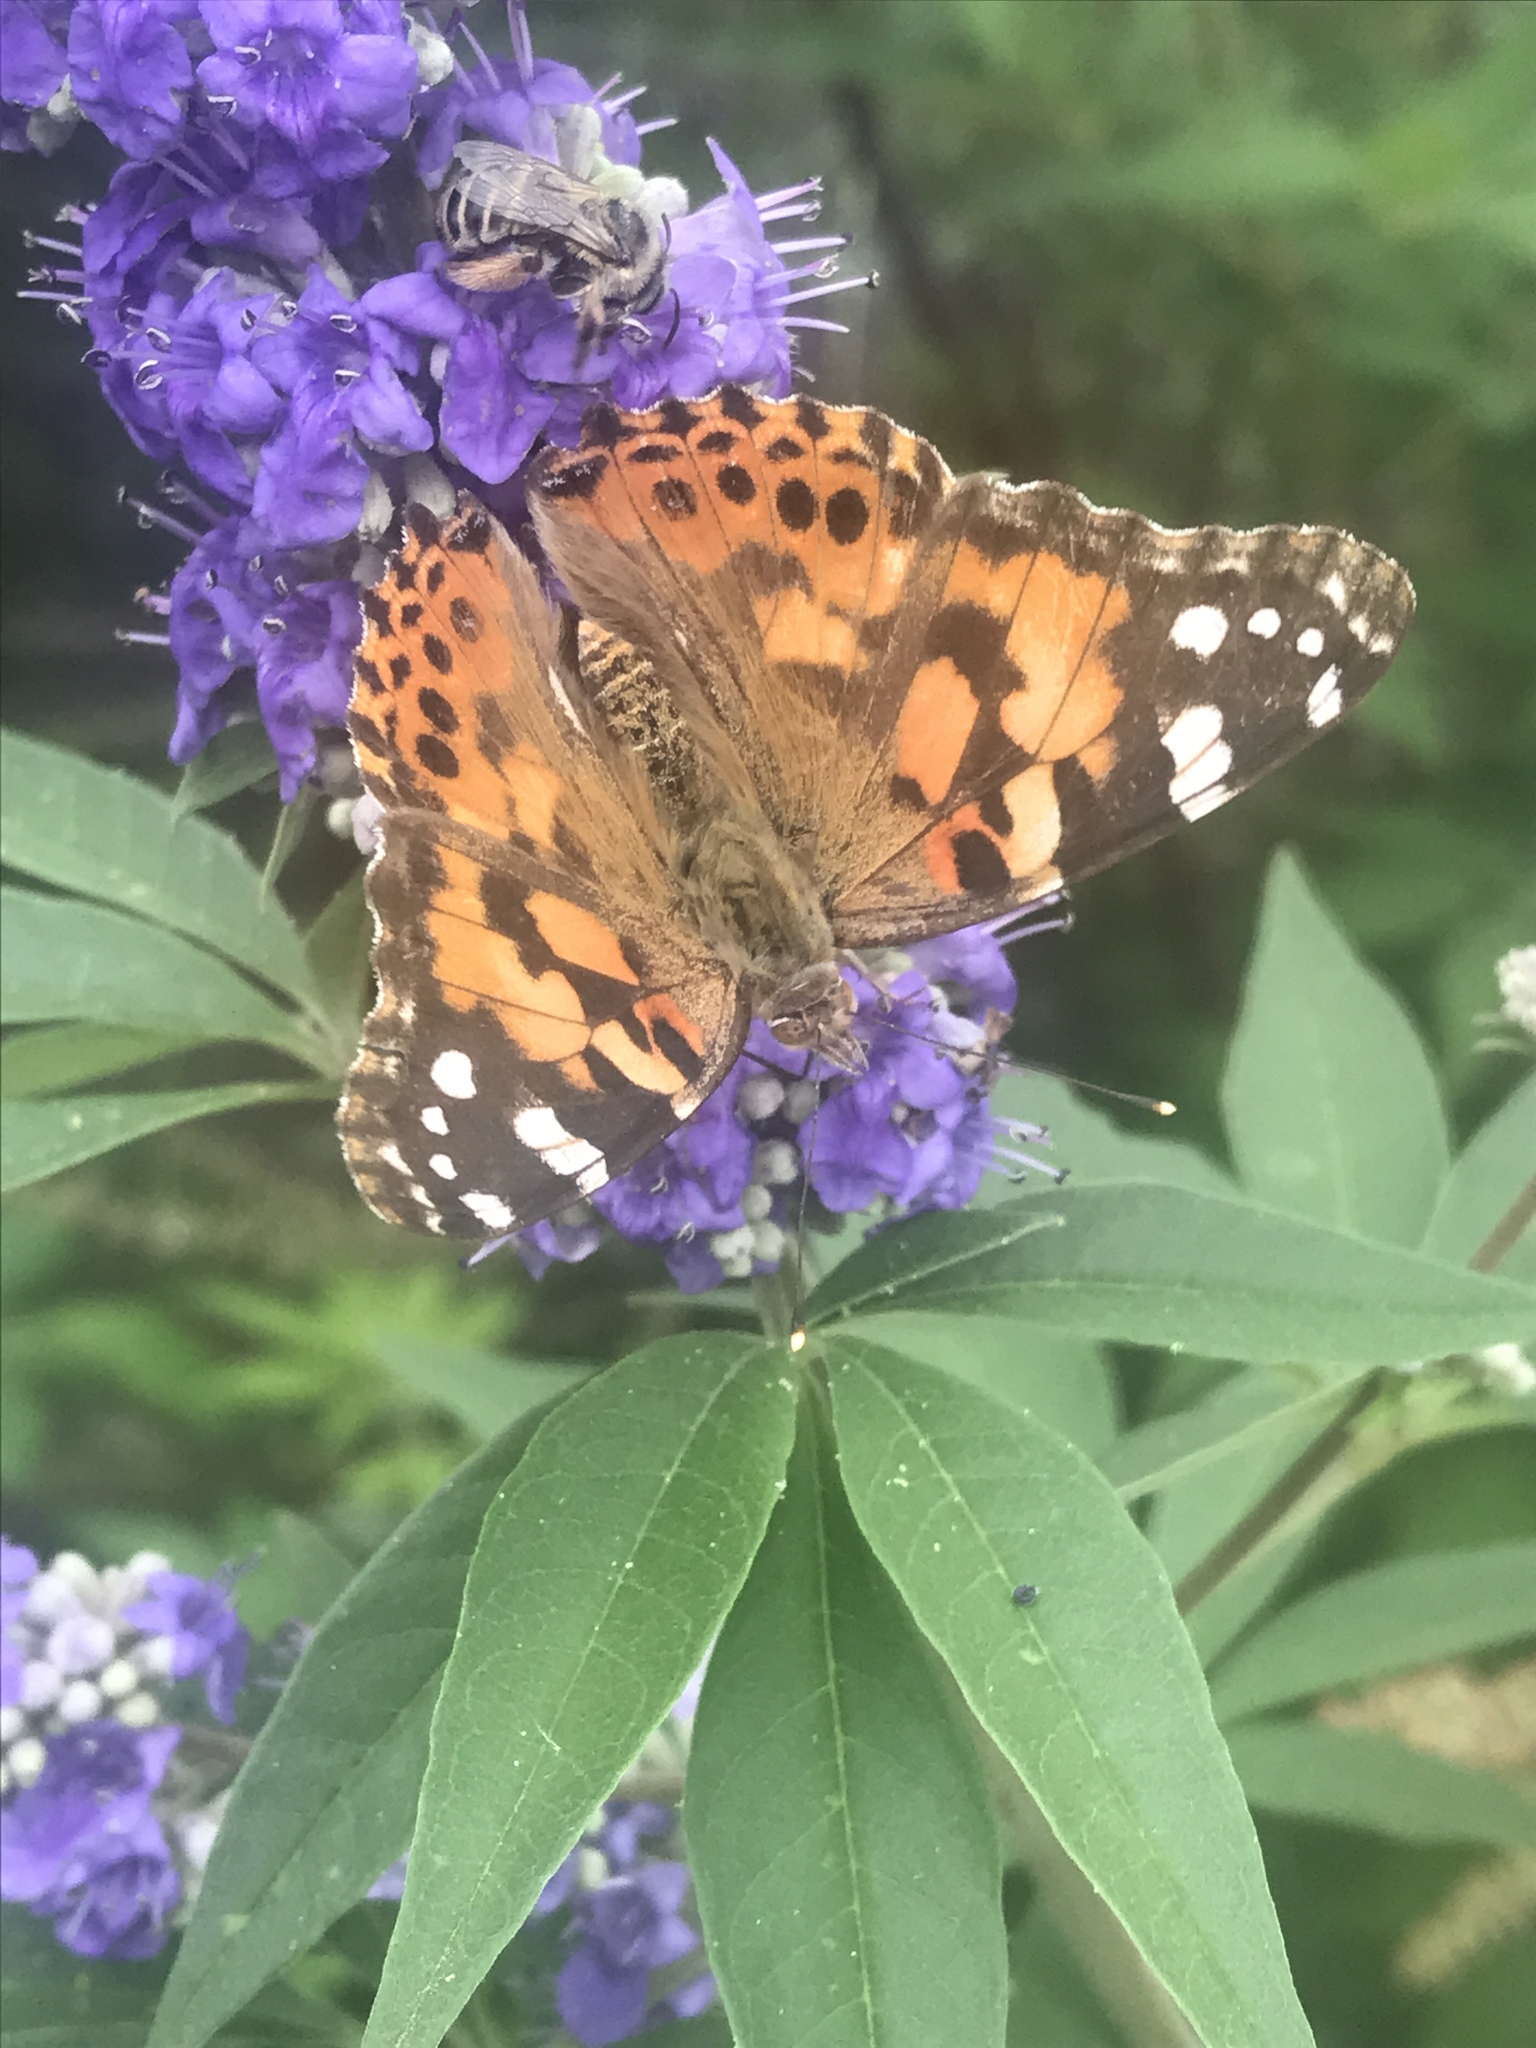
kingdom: Animalia
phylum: Arthropoda
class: Insecta
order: Lepidoptera
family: Nymphalidae
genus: Vanessa
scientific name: Vanessa cardui
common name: Painted lady
